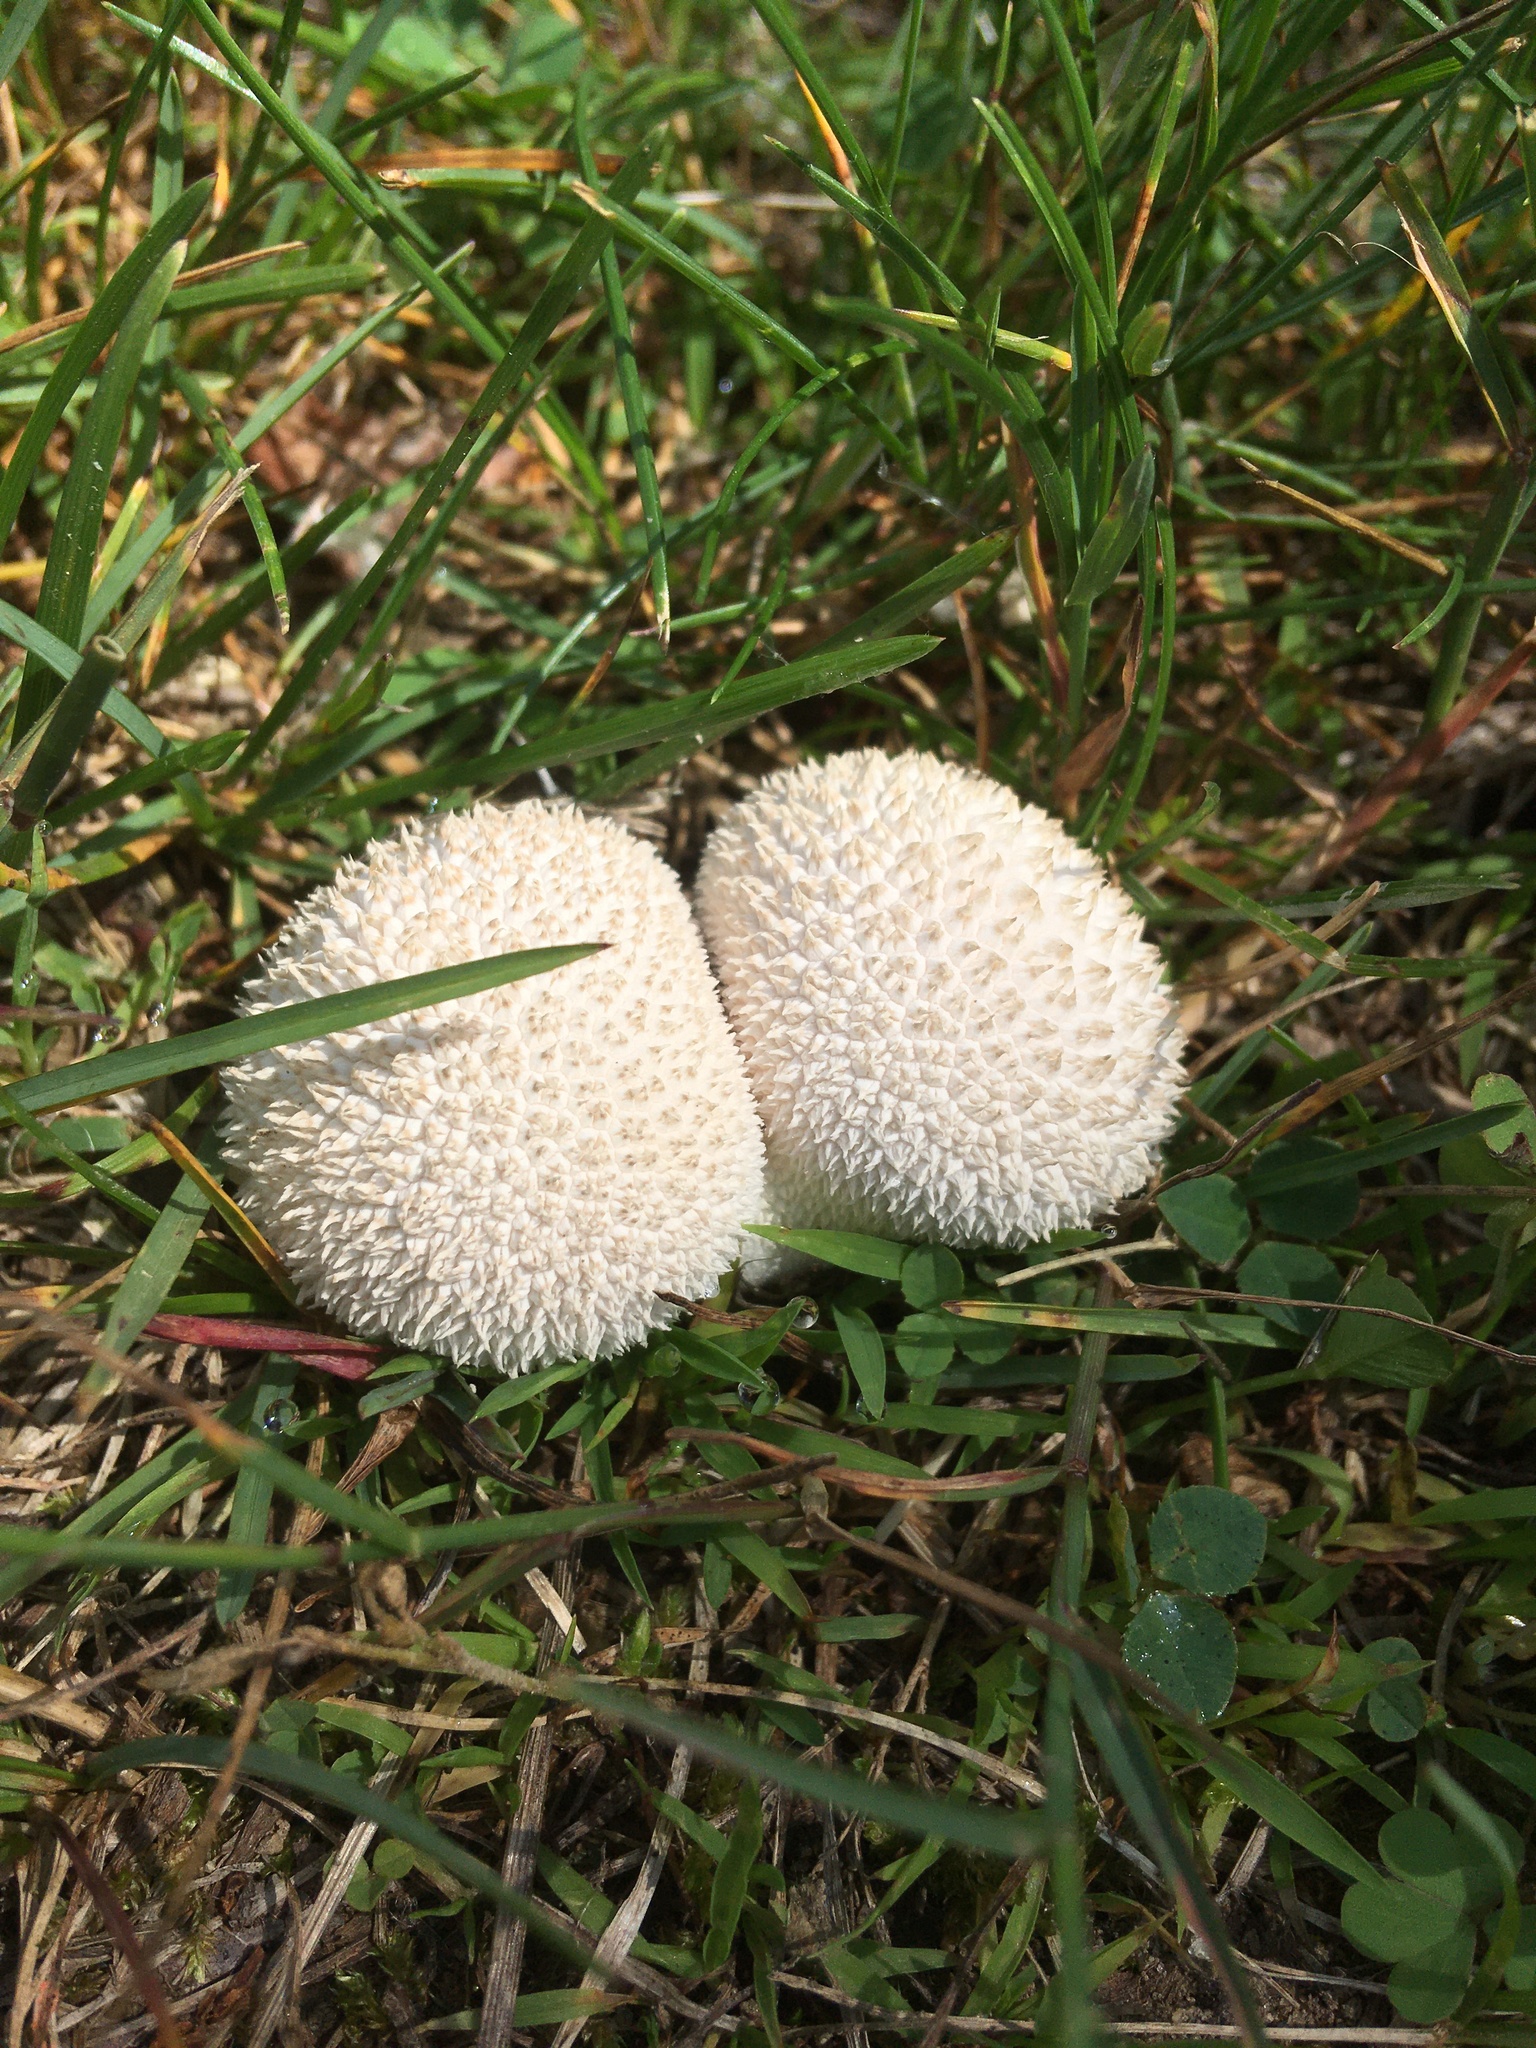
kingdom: Fungi
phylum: Basidiomycota
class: Agaricomycetes
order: Agaricales
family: Agaricaceae
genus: Lycoperdon
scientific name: Lycoperdon marginatum
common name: Peeling puffball
